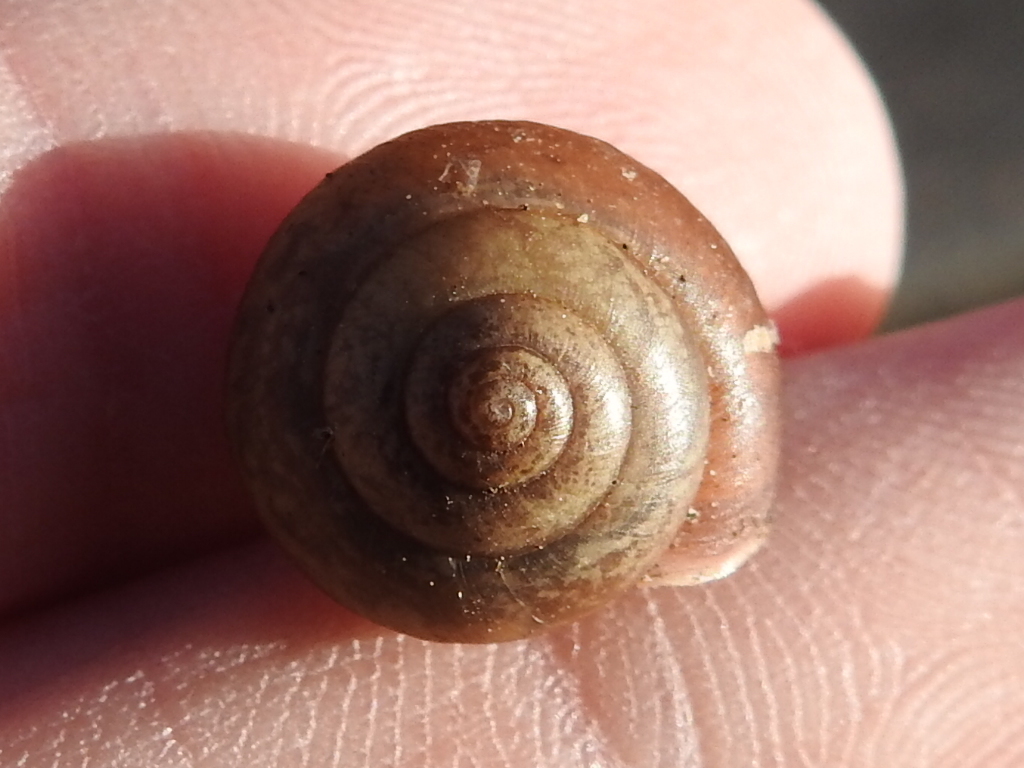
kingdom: Animalia
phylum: Mollusca
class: Gastropoda
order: Stylommatophora
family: Camaenidae
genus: Bradybaena
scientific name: Bradybaena similaris
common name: Asian trampsnail
